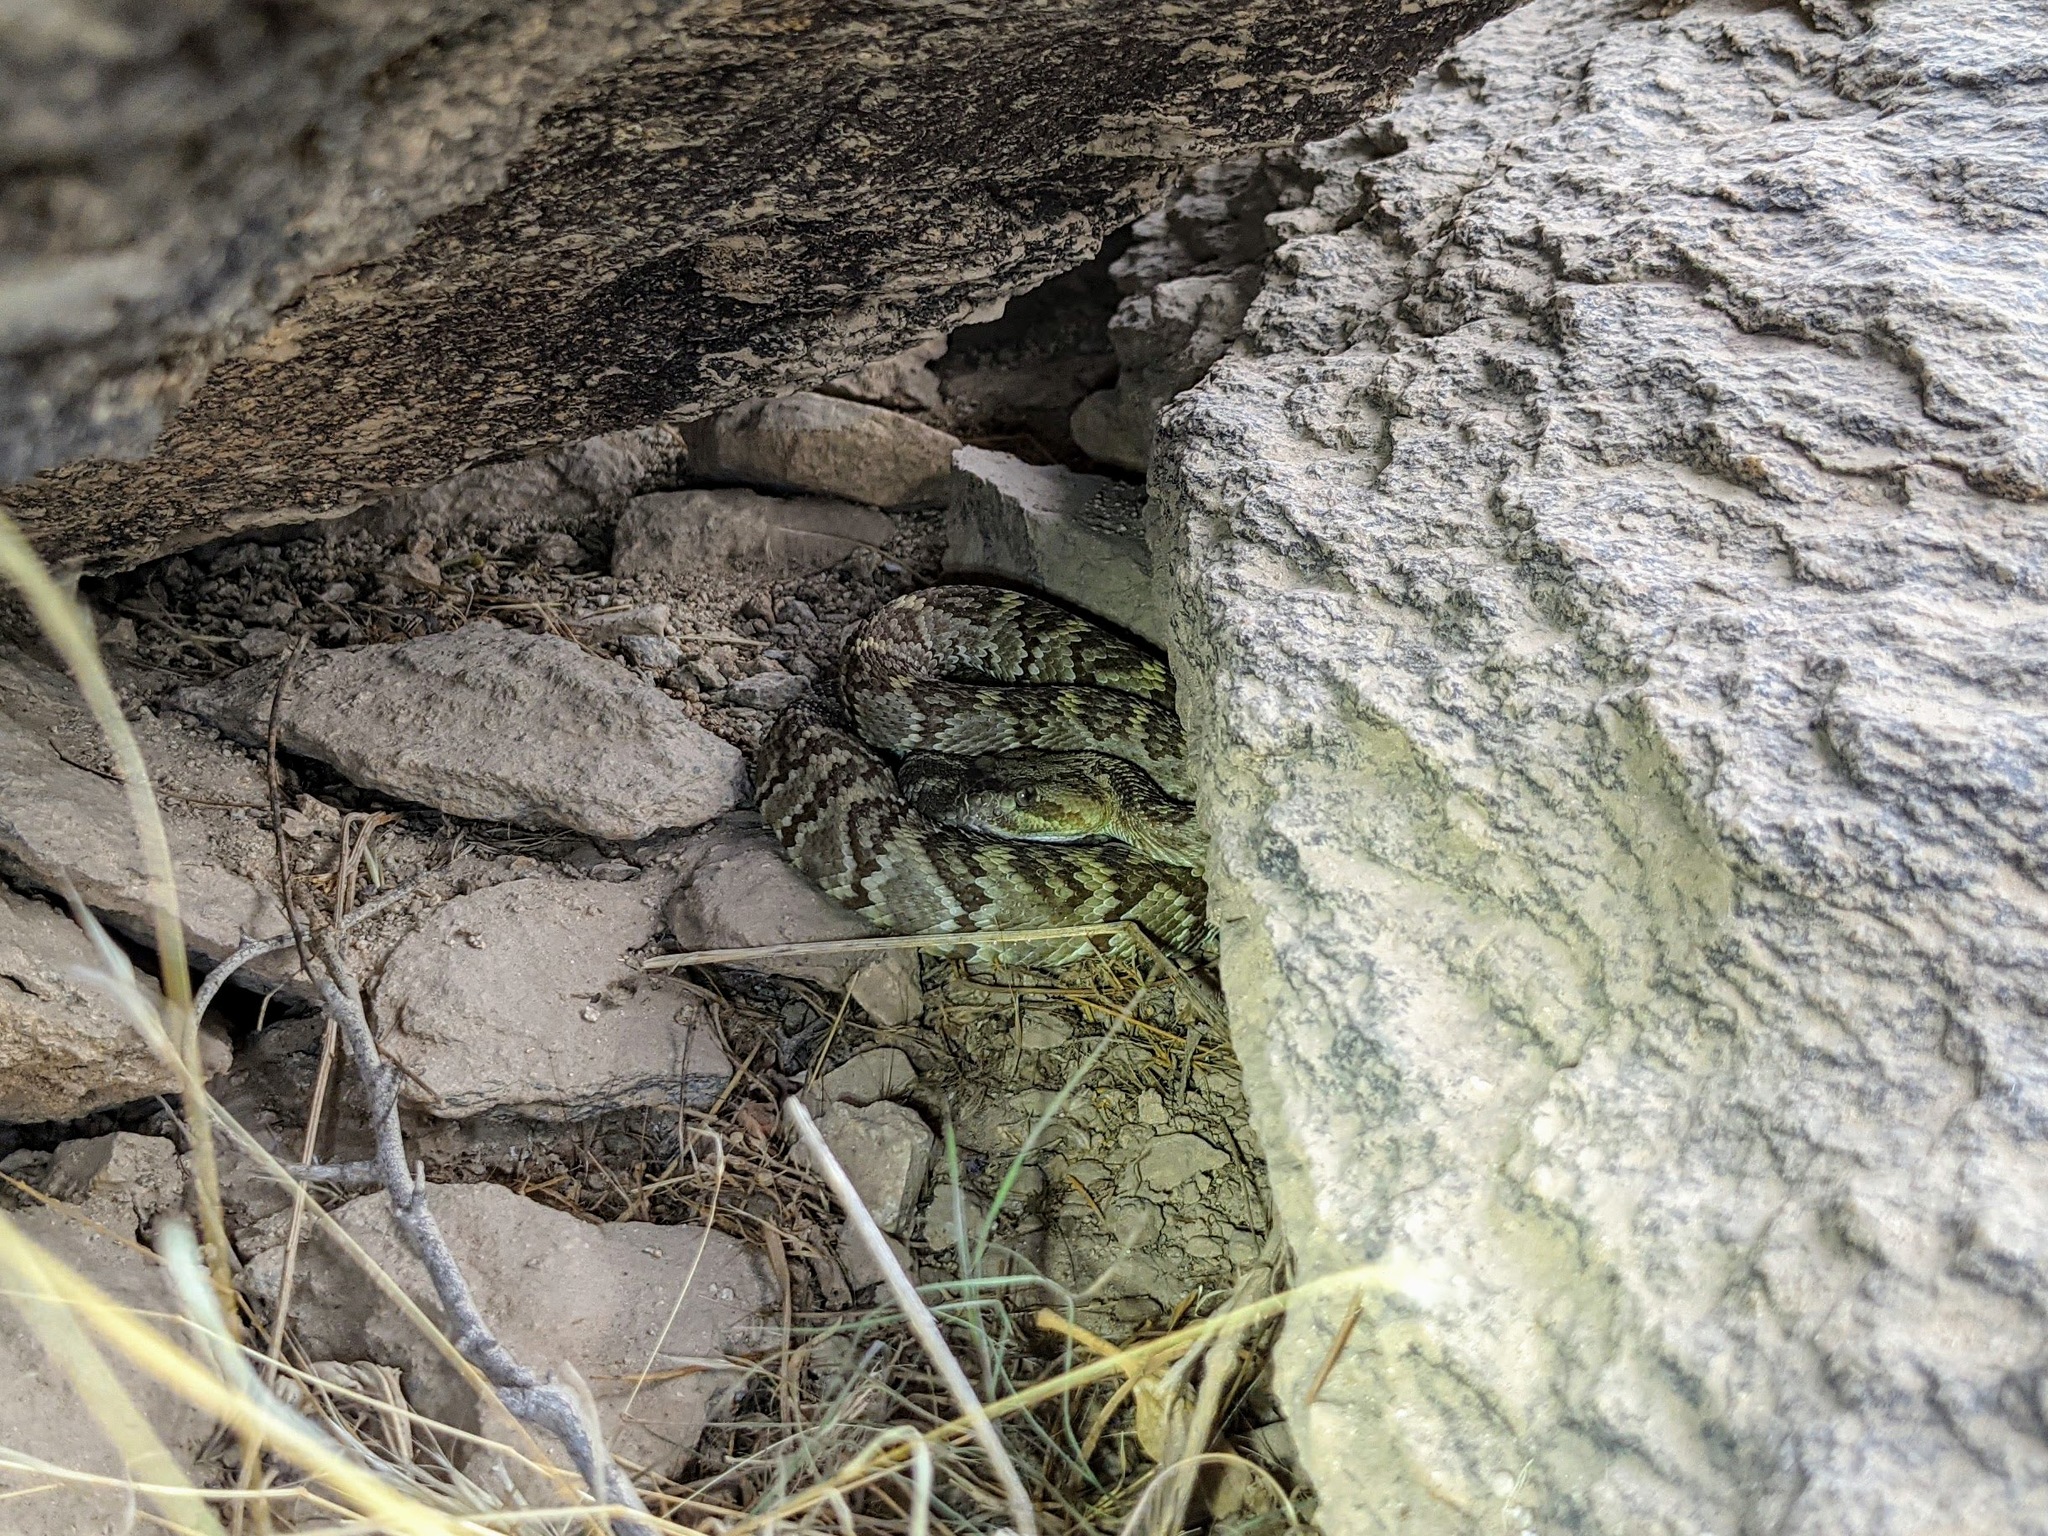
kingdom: Animalia
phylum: Chordata
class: Squamata
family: Viperidae
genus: Crotalus
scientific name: Crotalus molossus
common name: Black tailed rattlesnake
